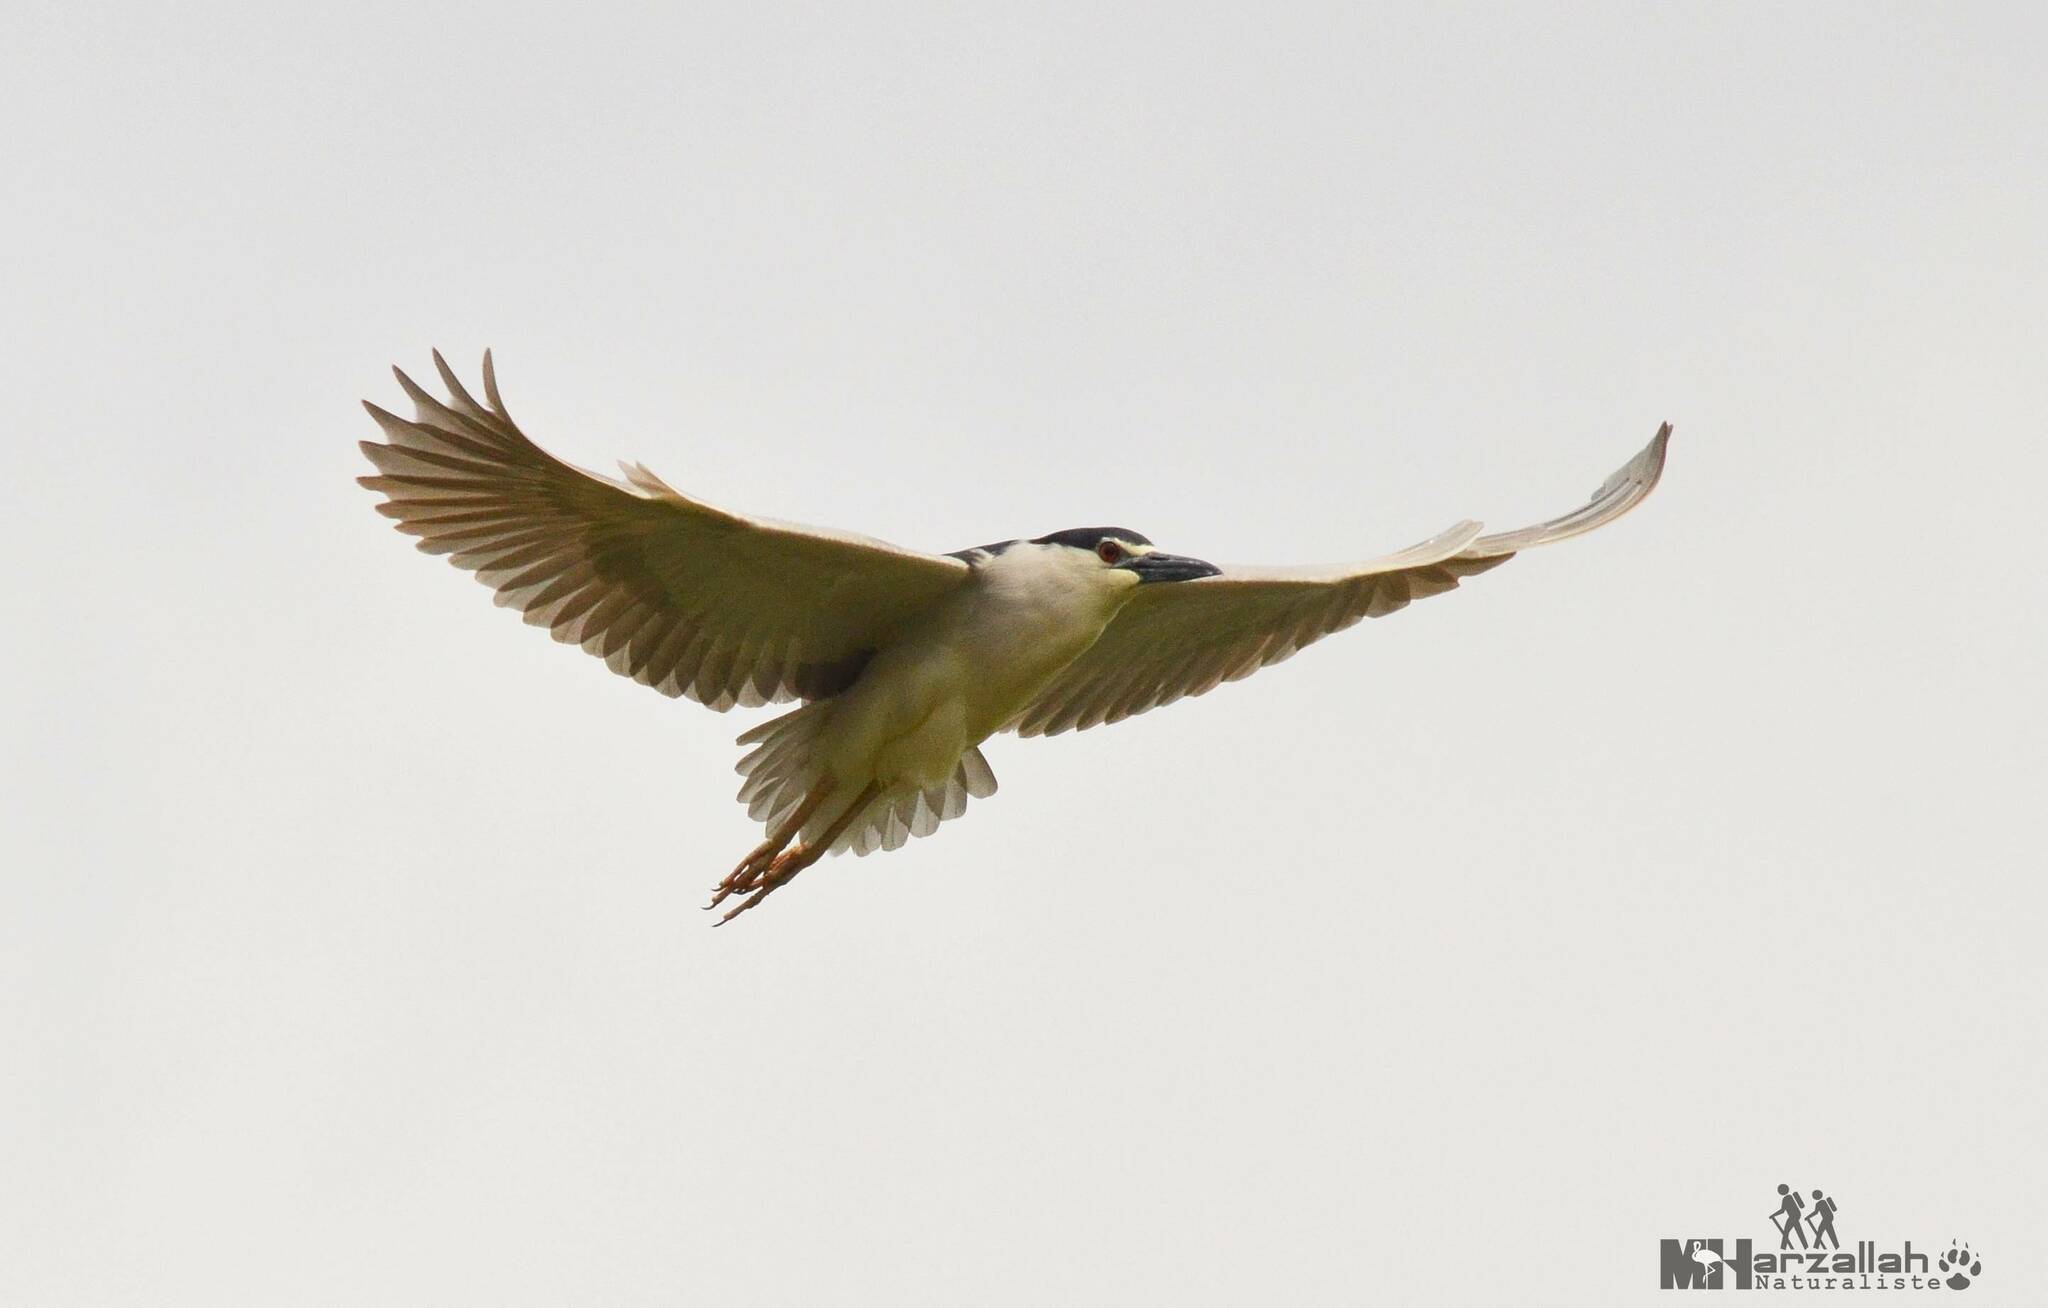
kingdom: Animalia
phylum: Chordata
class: Aves
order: Pelecaniformes
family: Ardeidae
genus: Nycticorax
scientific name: Nycticorax nycticorax
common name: Black-crowned night heron
